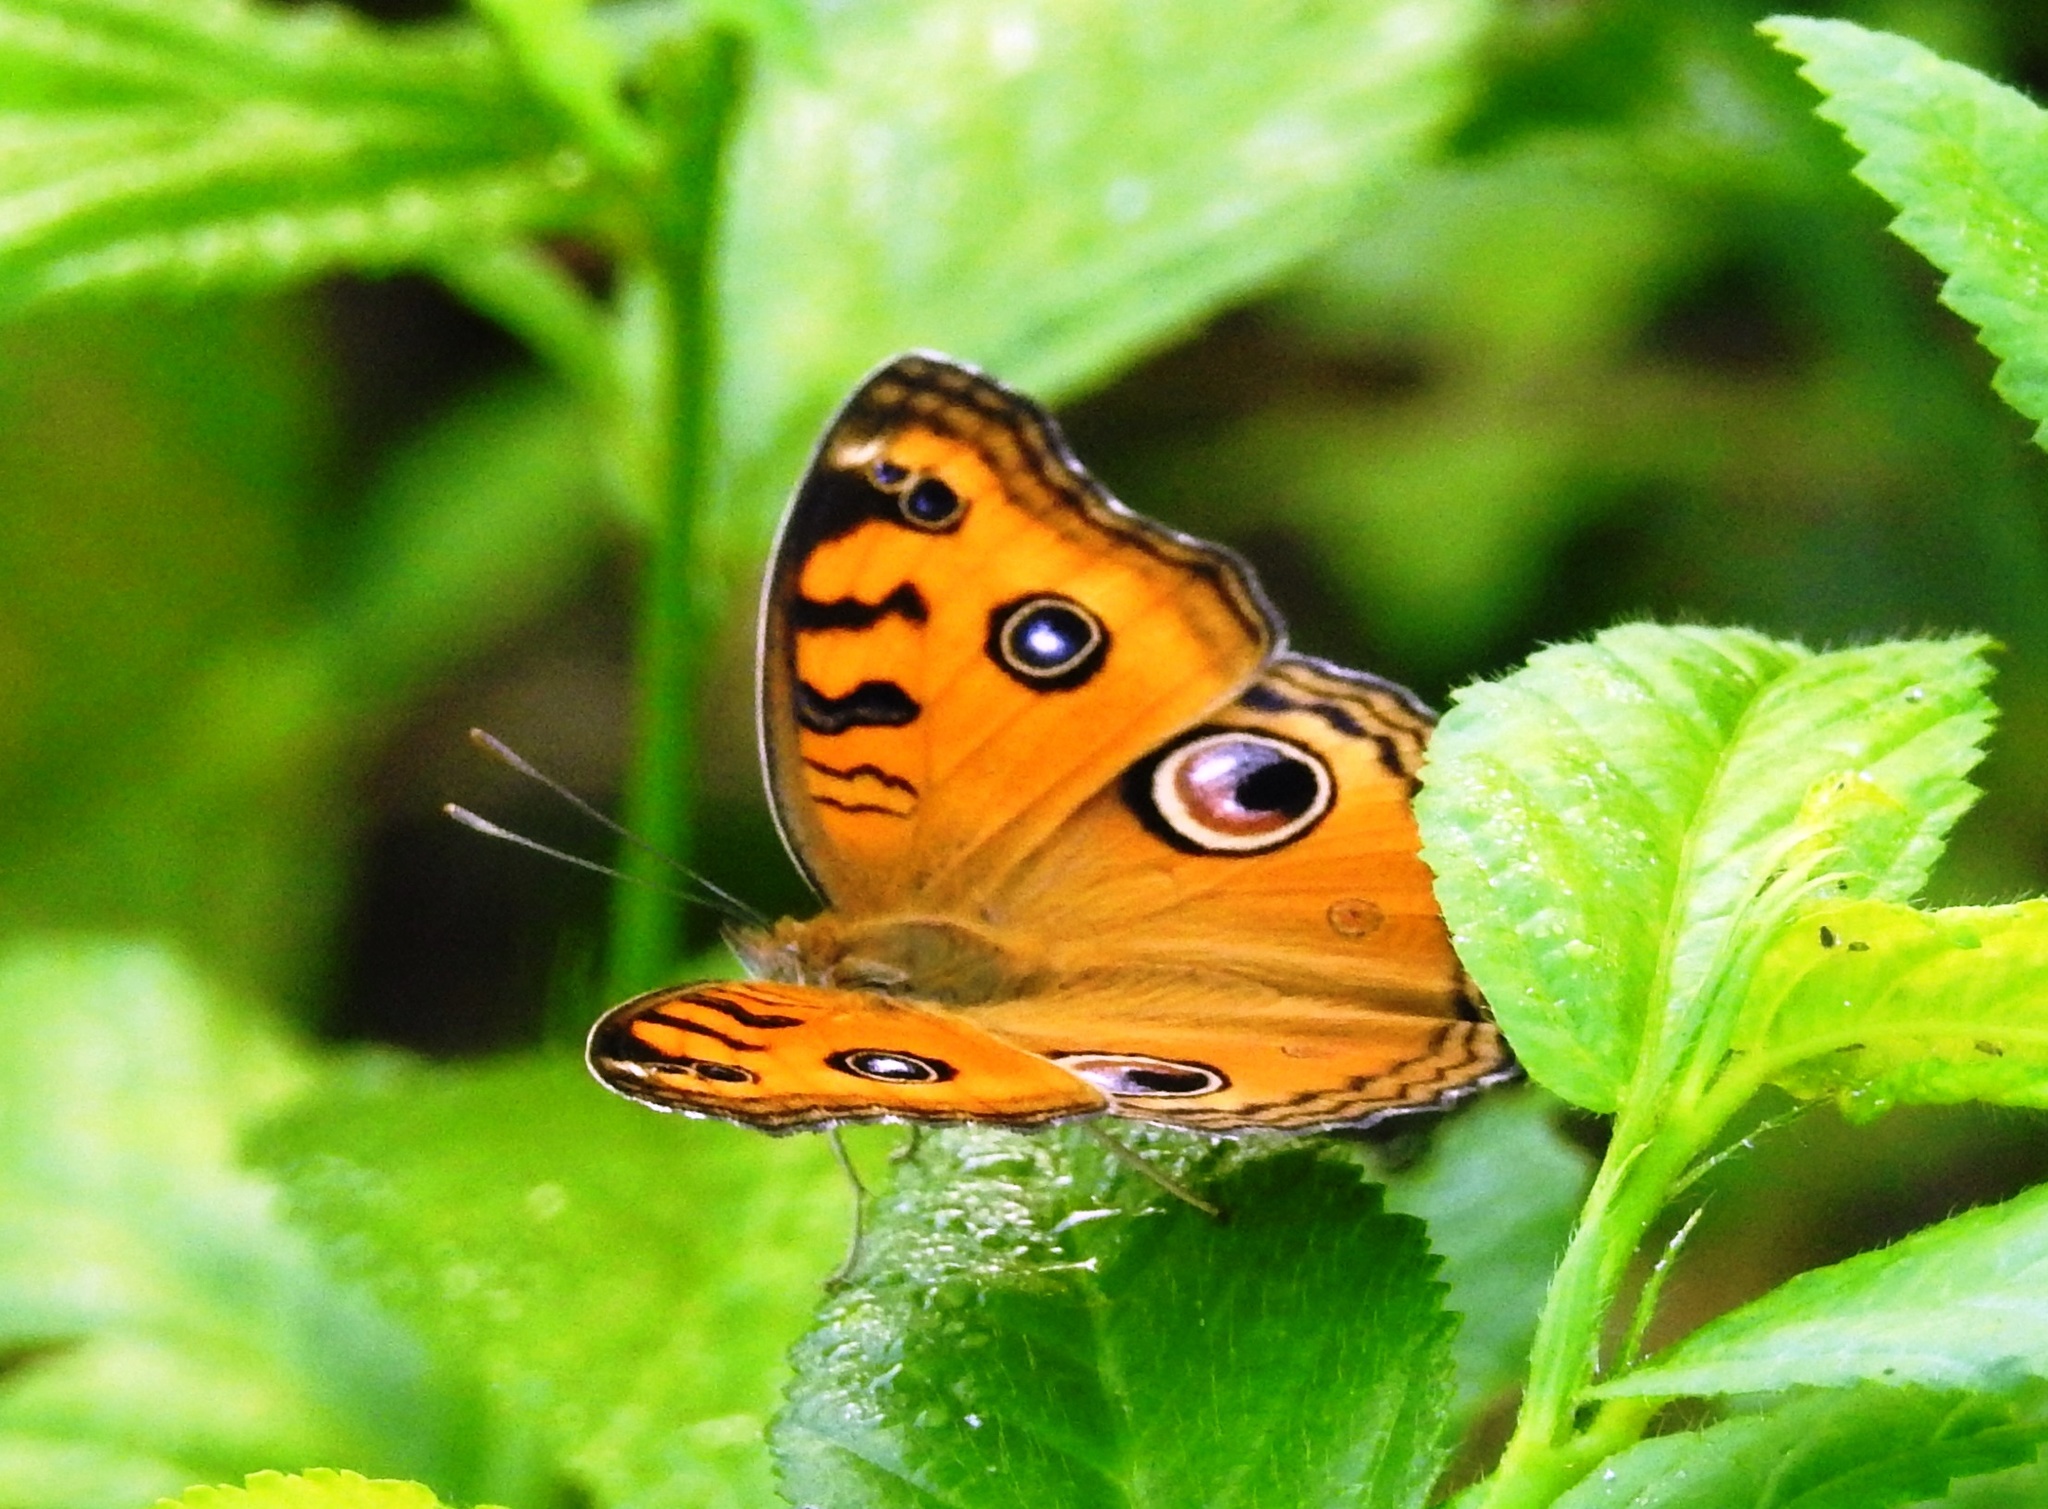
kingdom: Animalia
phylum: Arthropoda
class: Insecta
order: Lepidoptera
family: Nymphalidae
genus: Junonia
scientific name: Junonia almana
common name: Peacock pansy
